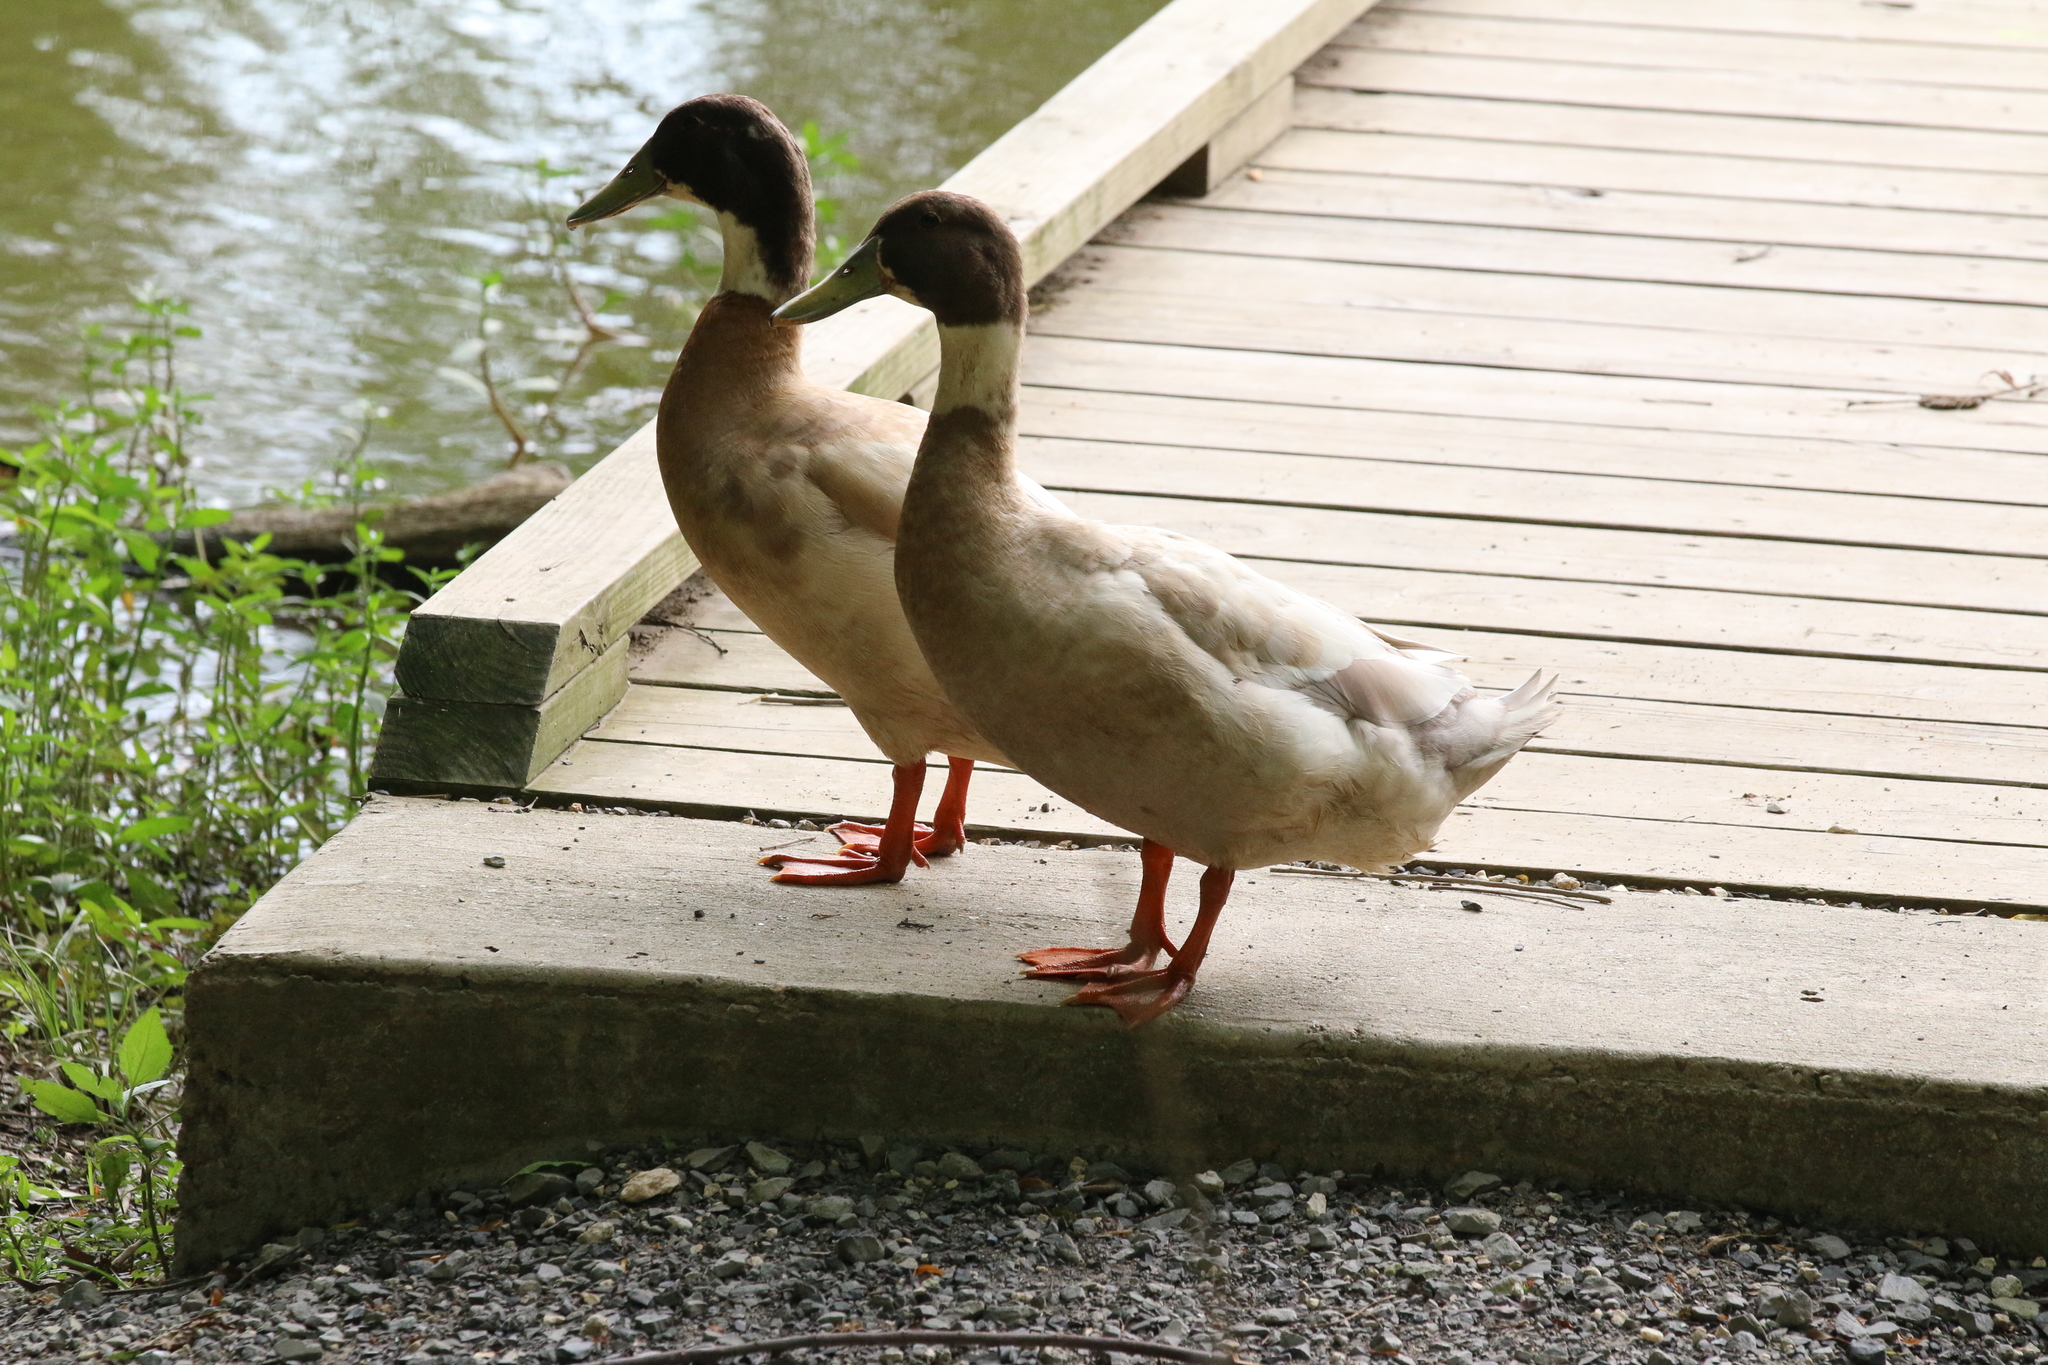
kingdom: Animalia
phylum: Chordata
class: Aves
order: Anseriformes
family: Anatidae
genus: Anas
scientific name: Anas platyrhynchos
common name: Mallard
